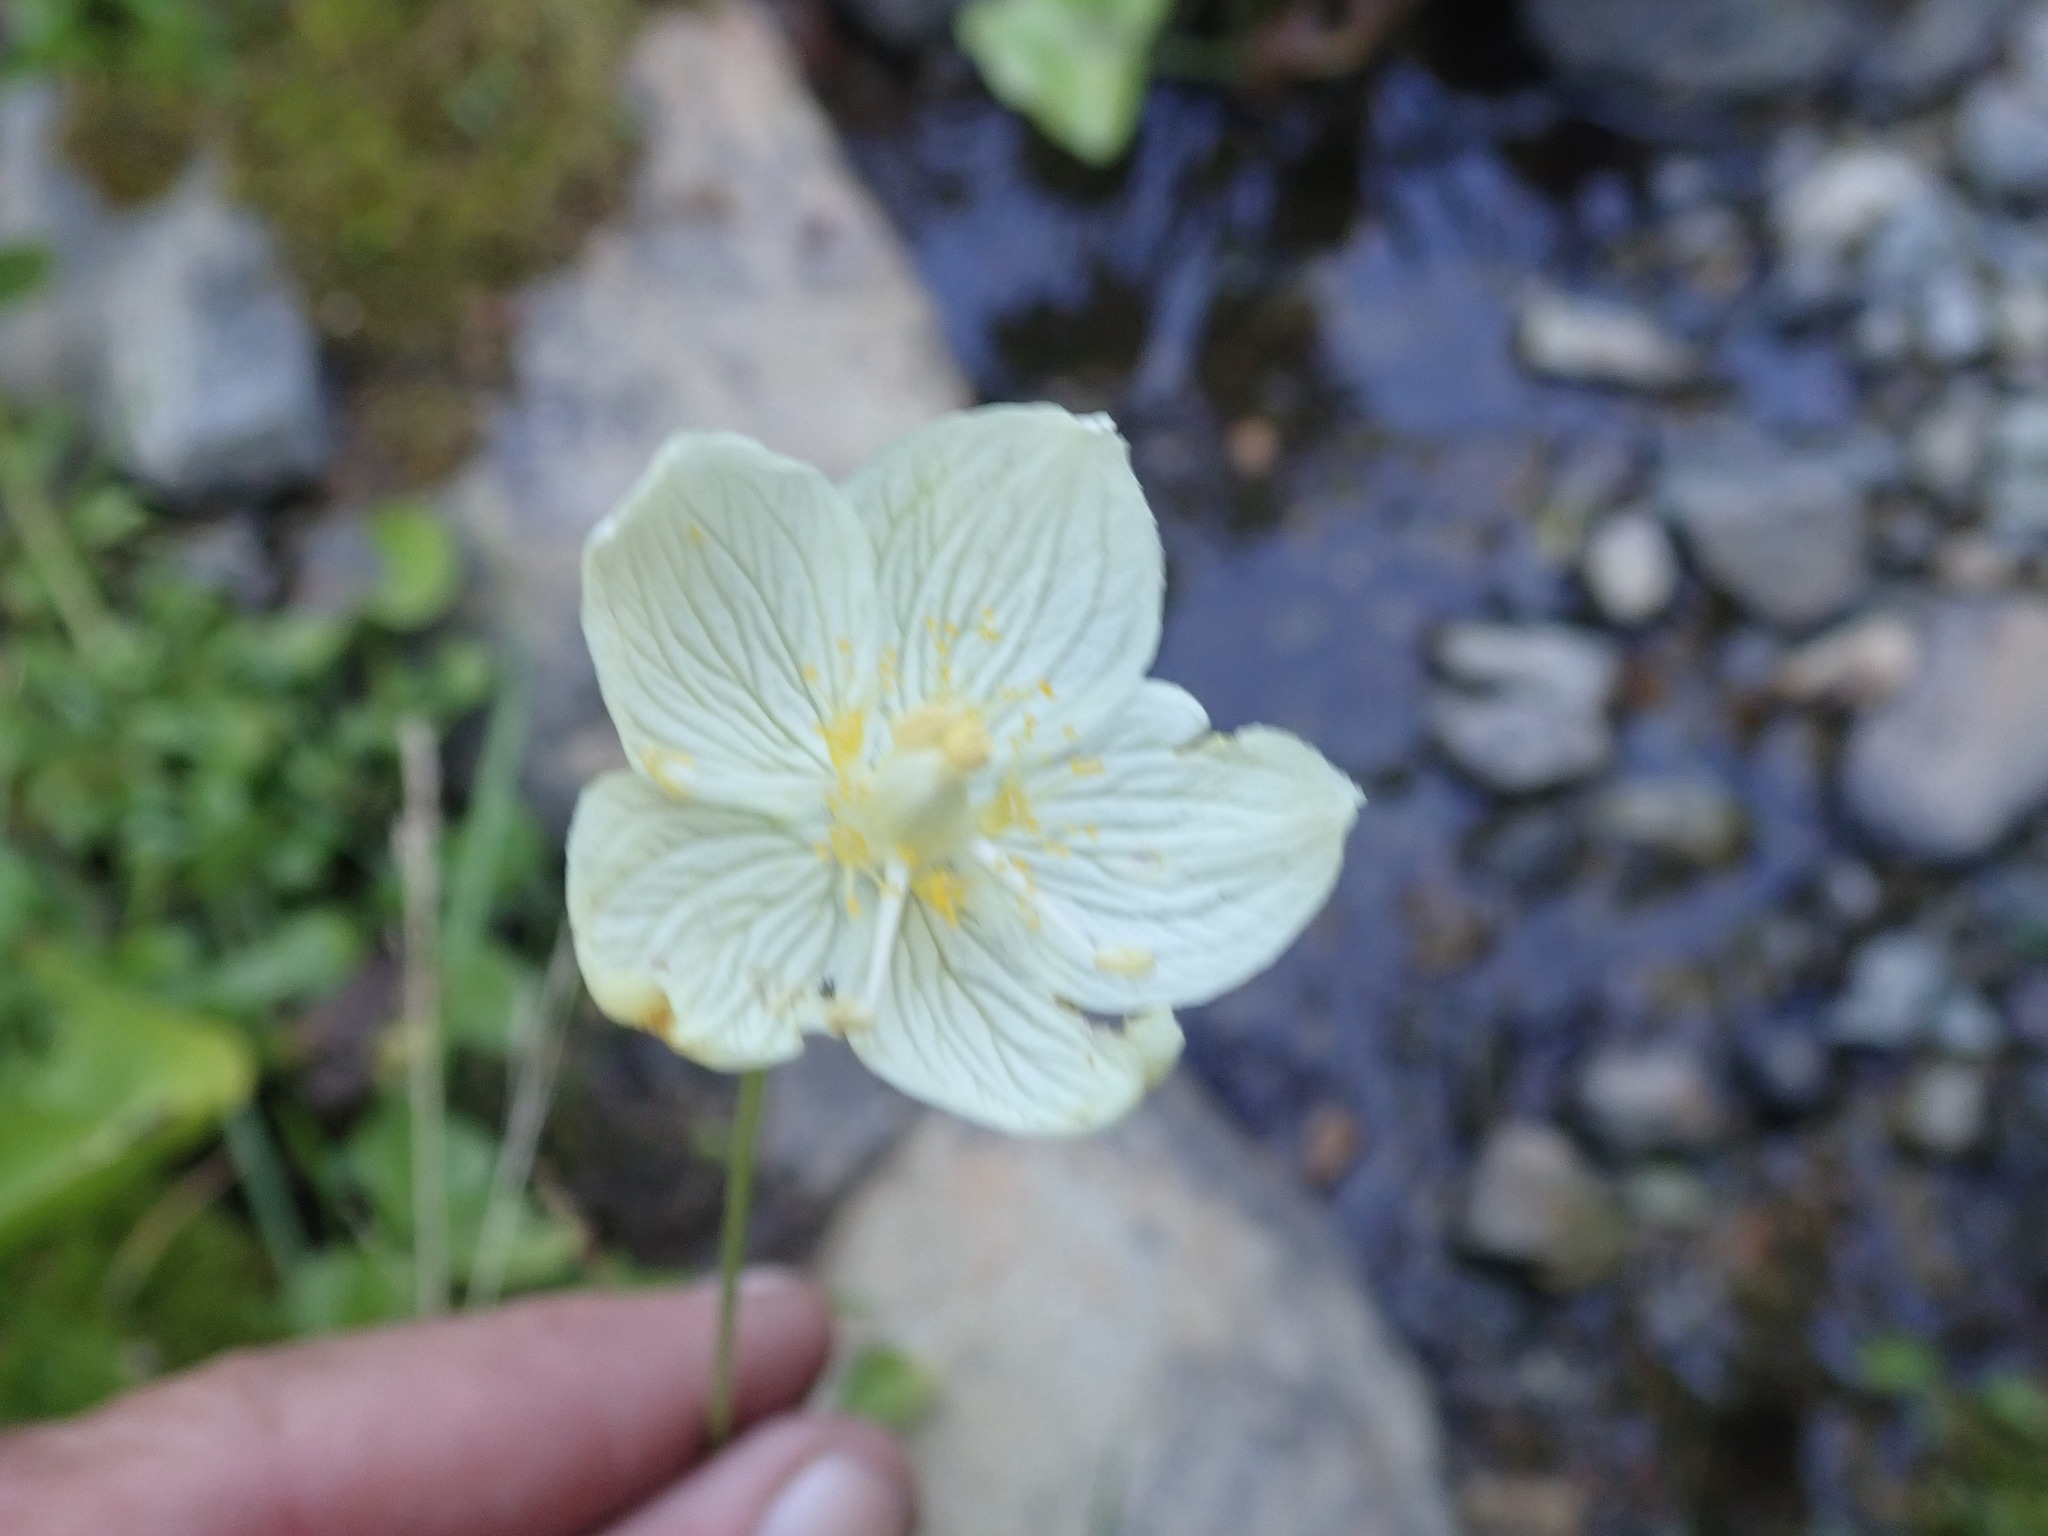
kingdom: Plantae
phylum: Tracheophyta
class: Magnoliopsida
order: Celastrales
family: Parnassiaceae
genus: Parnassia
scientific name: Parnassia palustris
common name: Grass-of-parnassus
